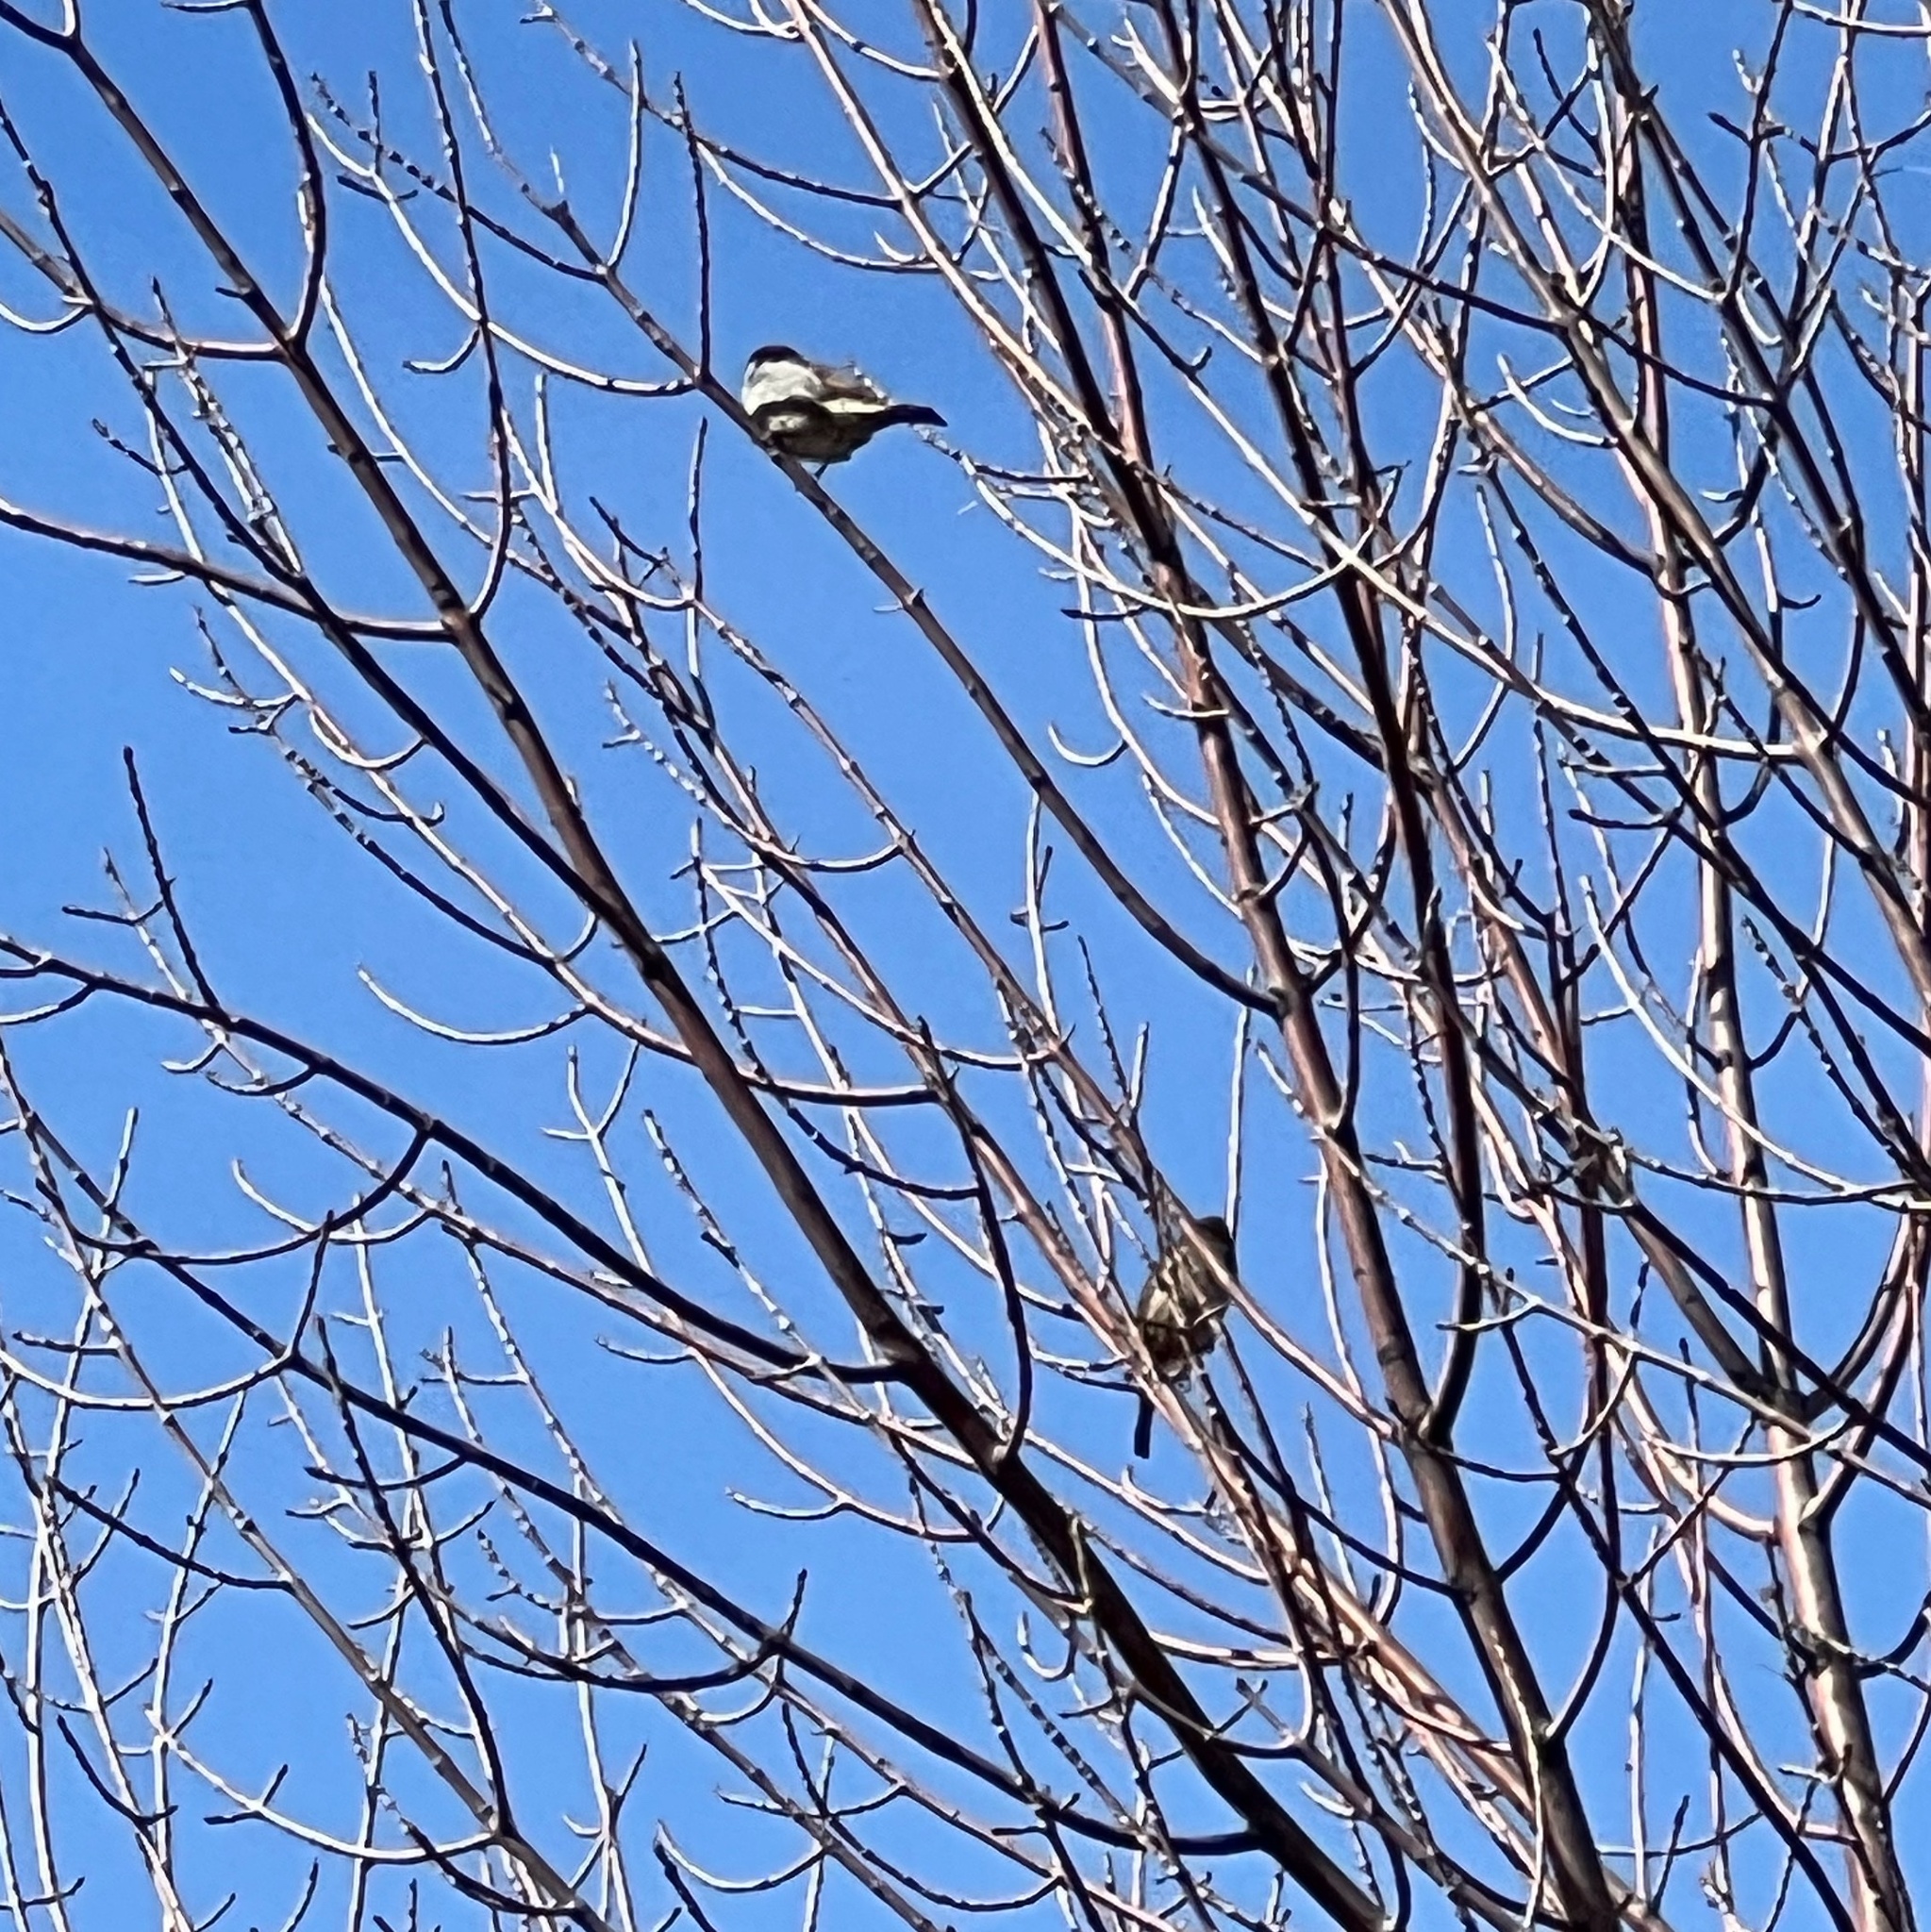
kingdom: Animalia
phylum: Chordata
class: Aves
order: Passeriformes
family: Passeridae
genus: Passer
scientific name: Passer domesticus
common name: House sparrow
